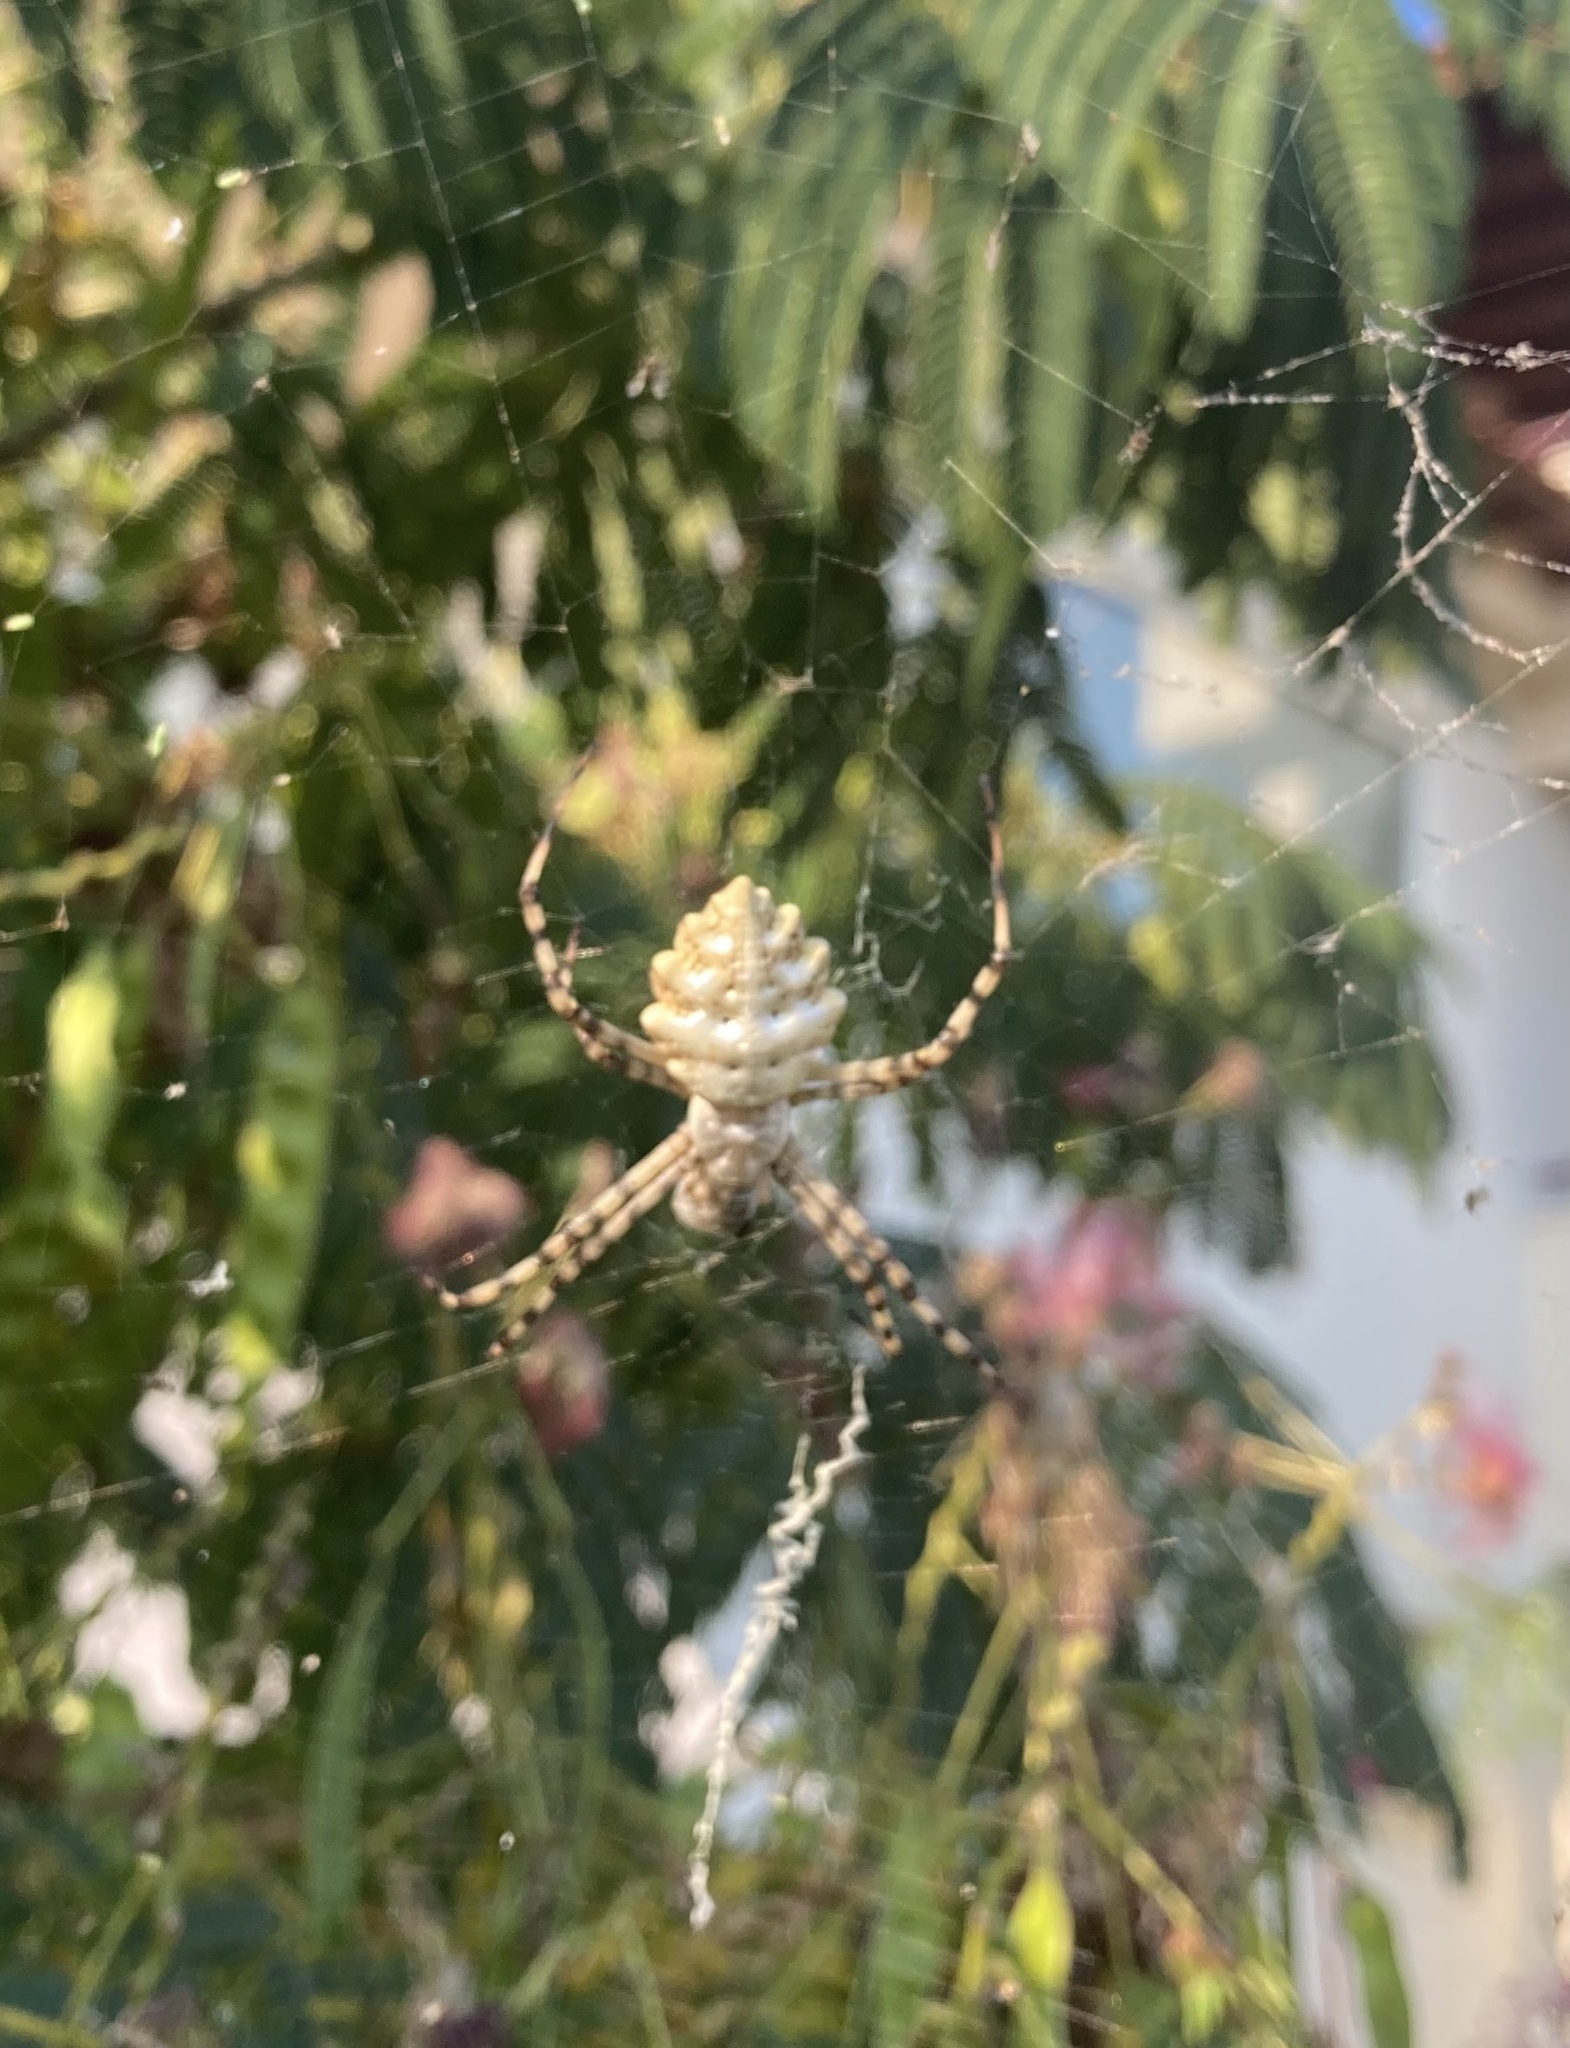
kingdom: Animalia
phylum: Arthropoda
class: Arachnida
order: Araneae
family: Araneidae
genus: Argiope
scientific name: Argiope lobata
